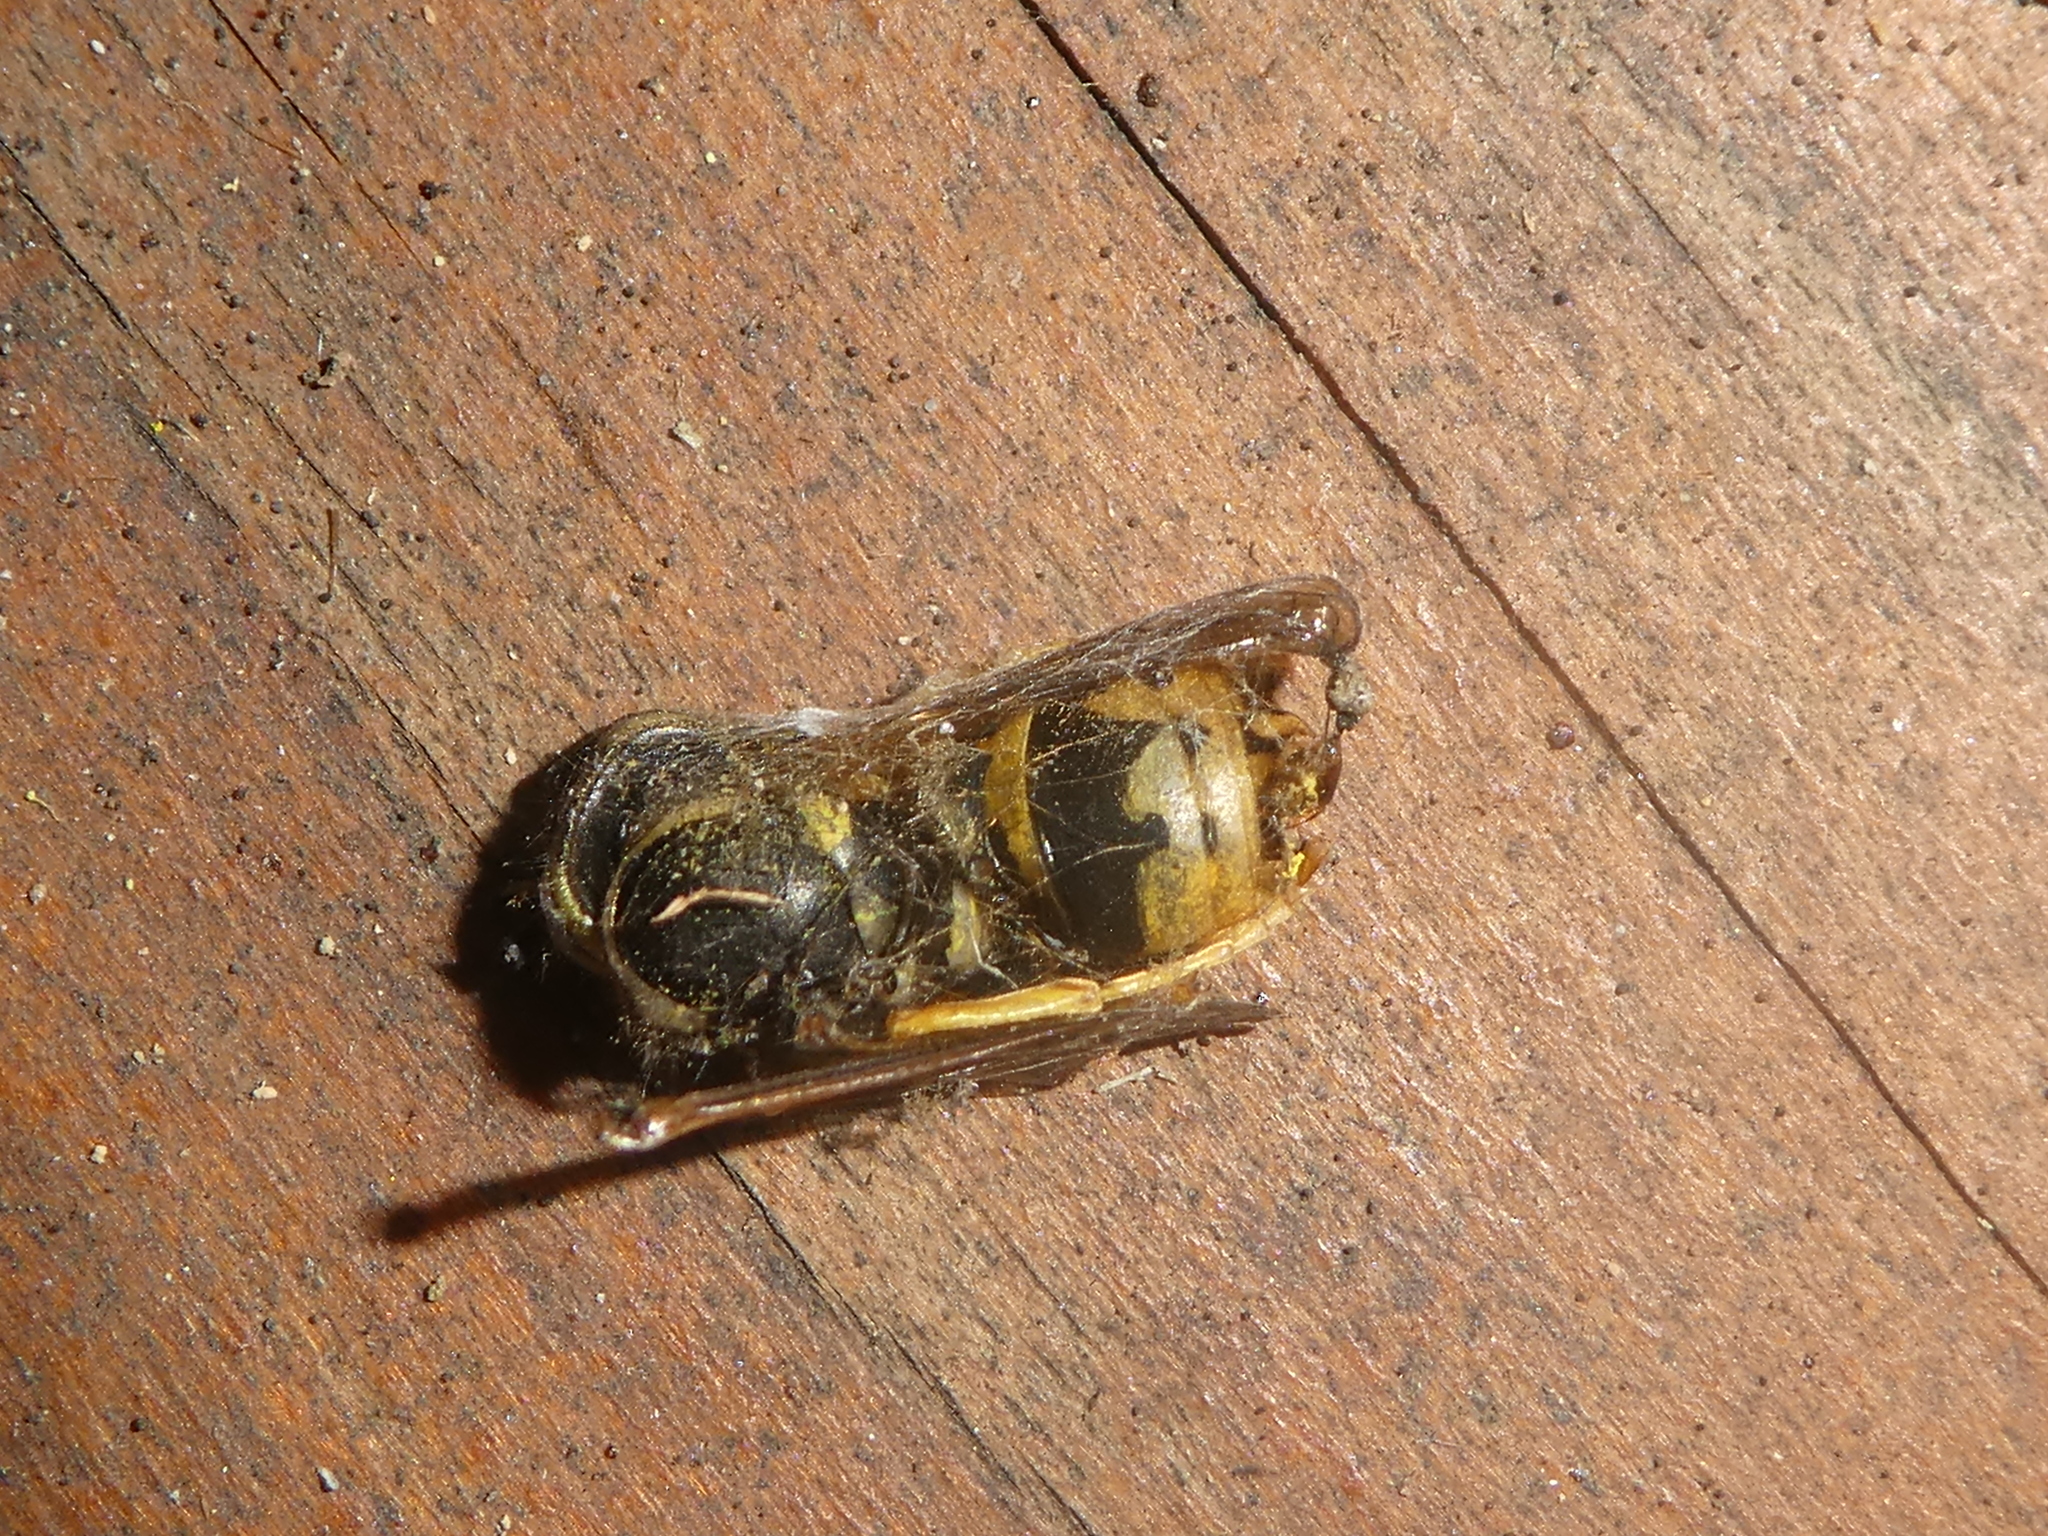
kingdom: Animalia
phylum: Arthropoda
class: Insecta
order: Hymenoptera
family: Vespidae
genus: Vespula
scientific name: Vespula
